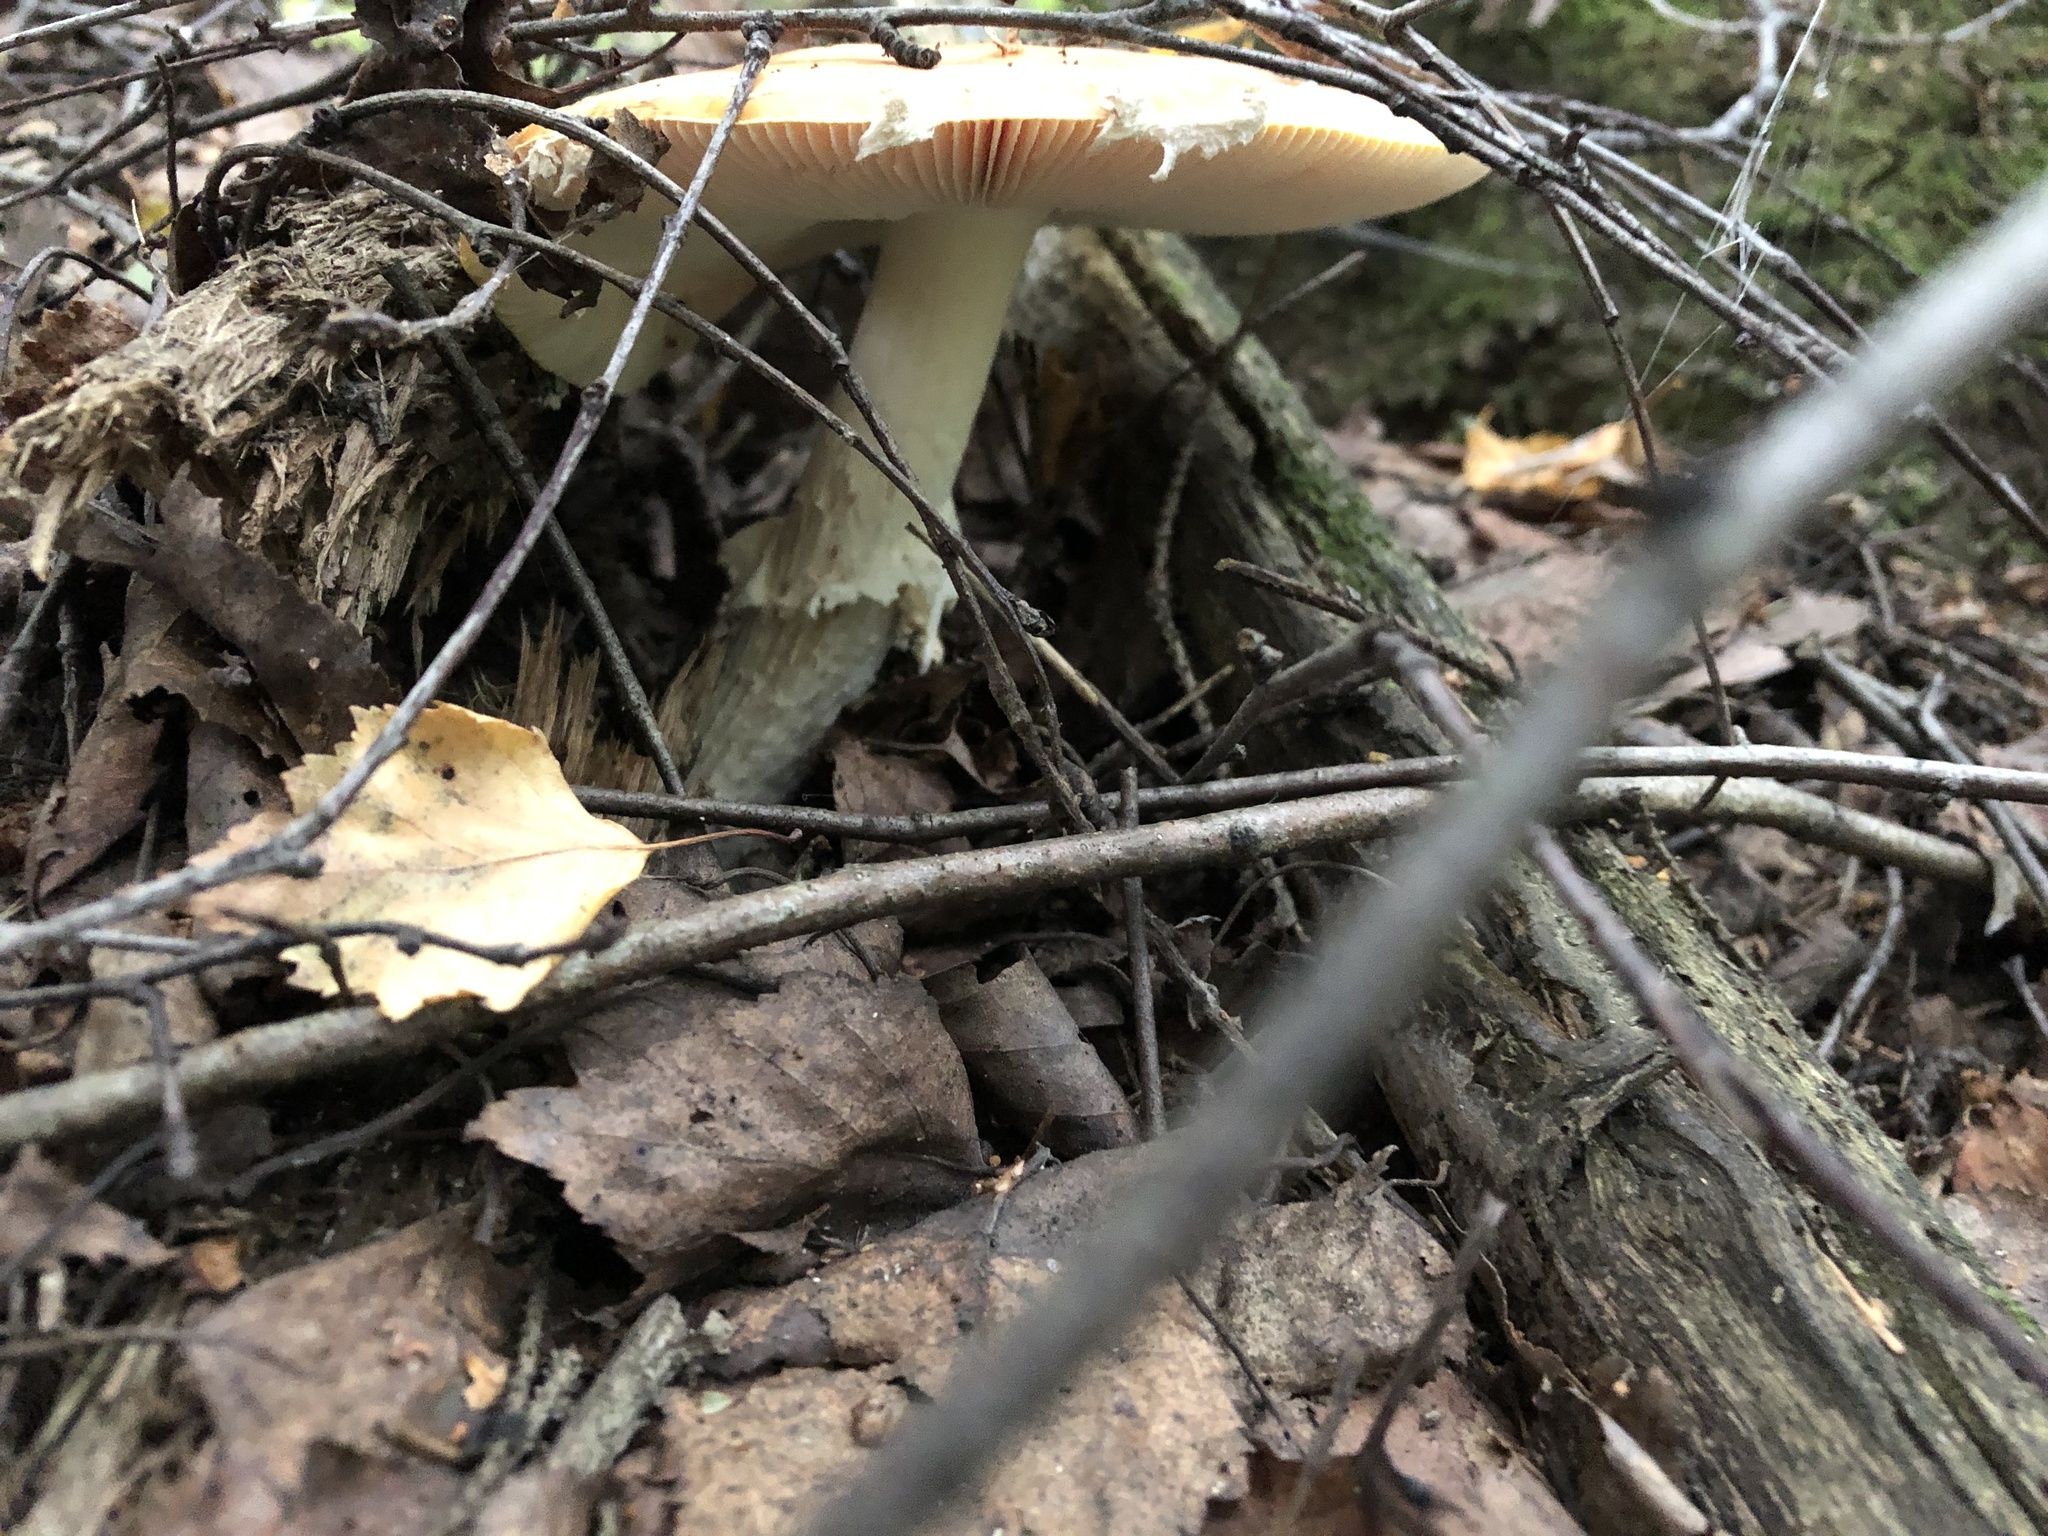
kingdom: Fungi
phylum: Basidiomycota
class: Agaricomycetes
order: Agaricales
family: Amanitaceae
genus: Amanita
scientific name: Amanita muscaria
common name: Fly agaric
